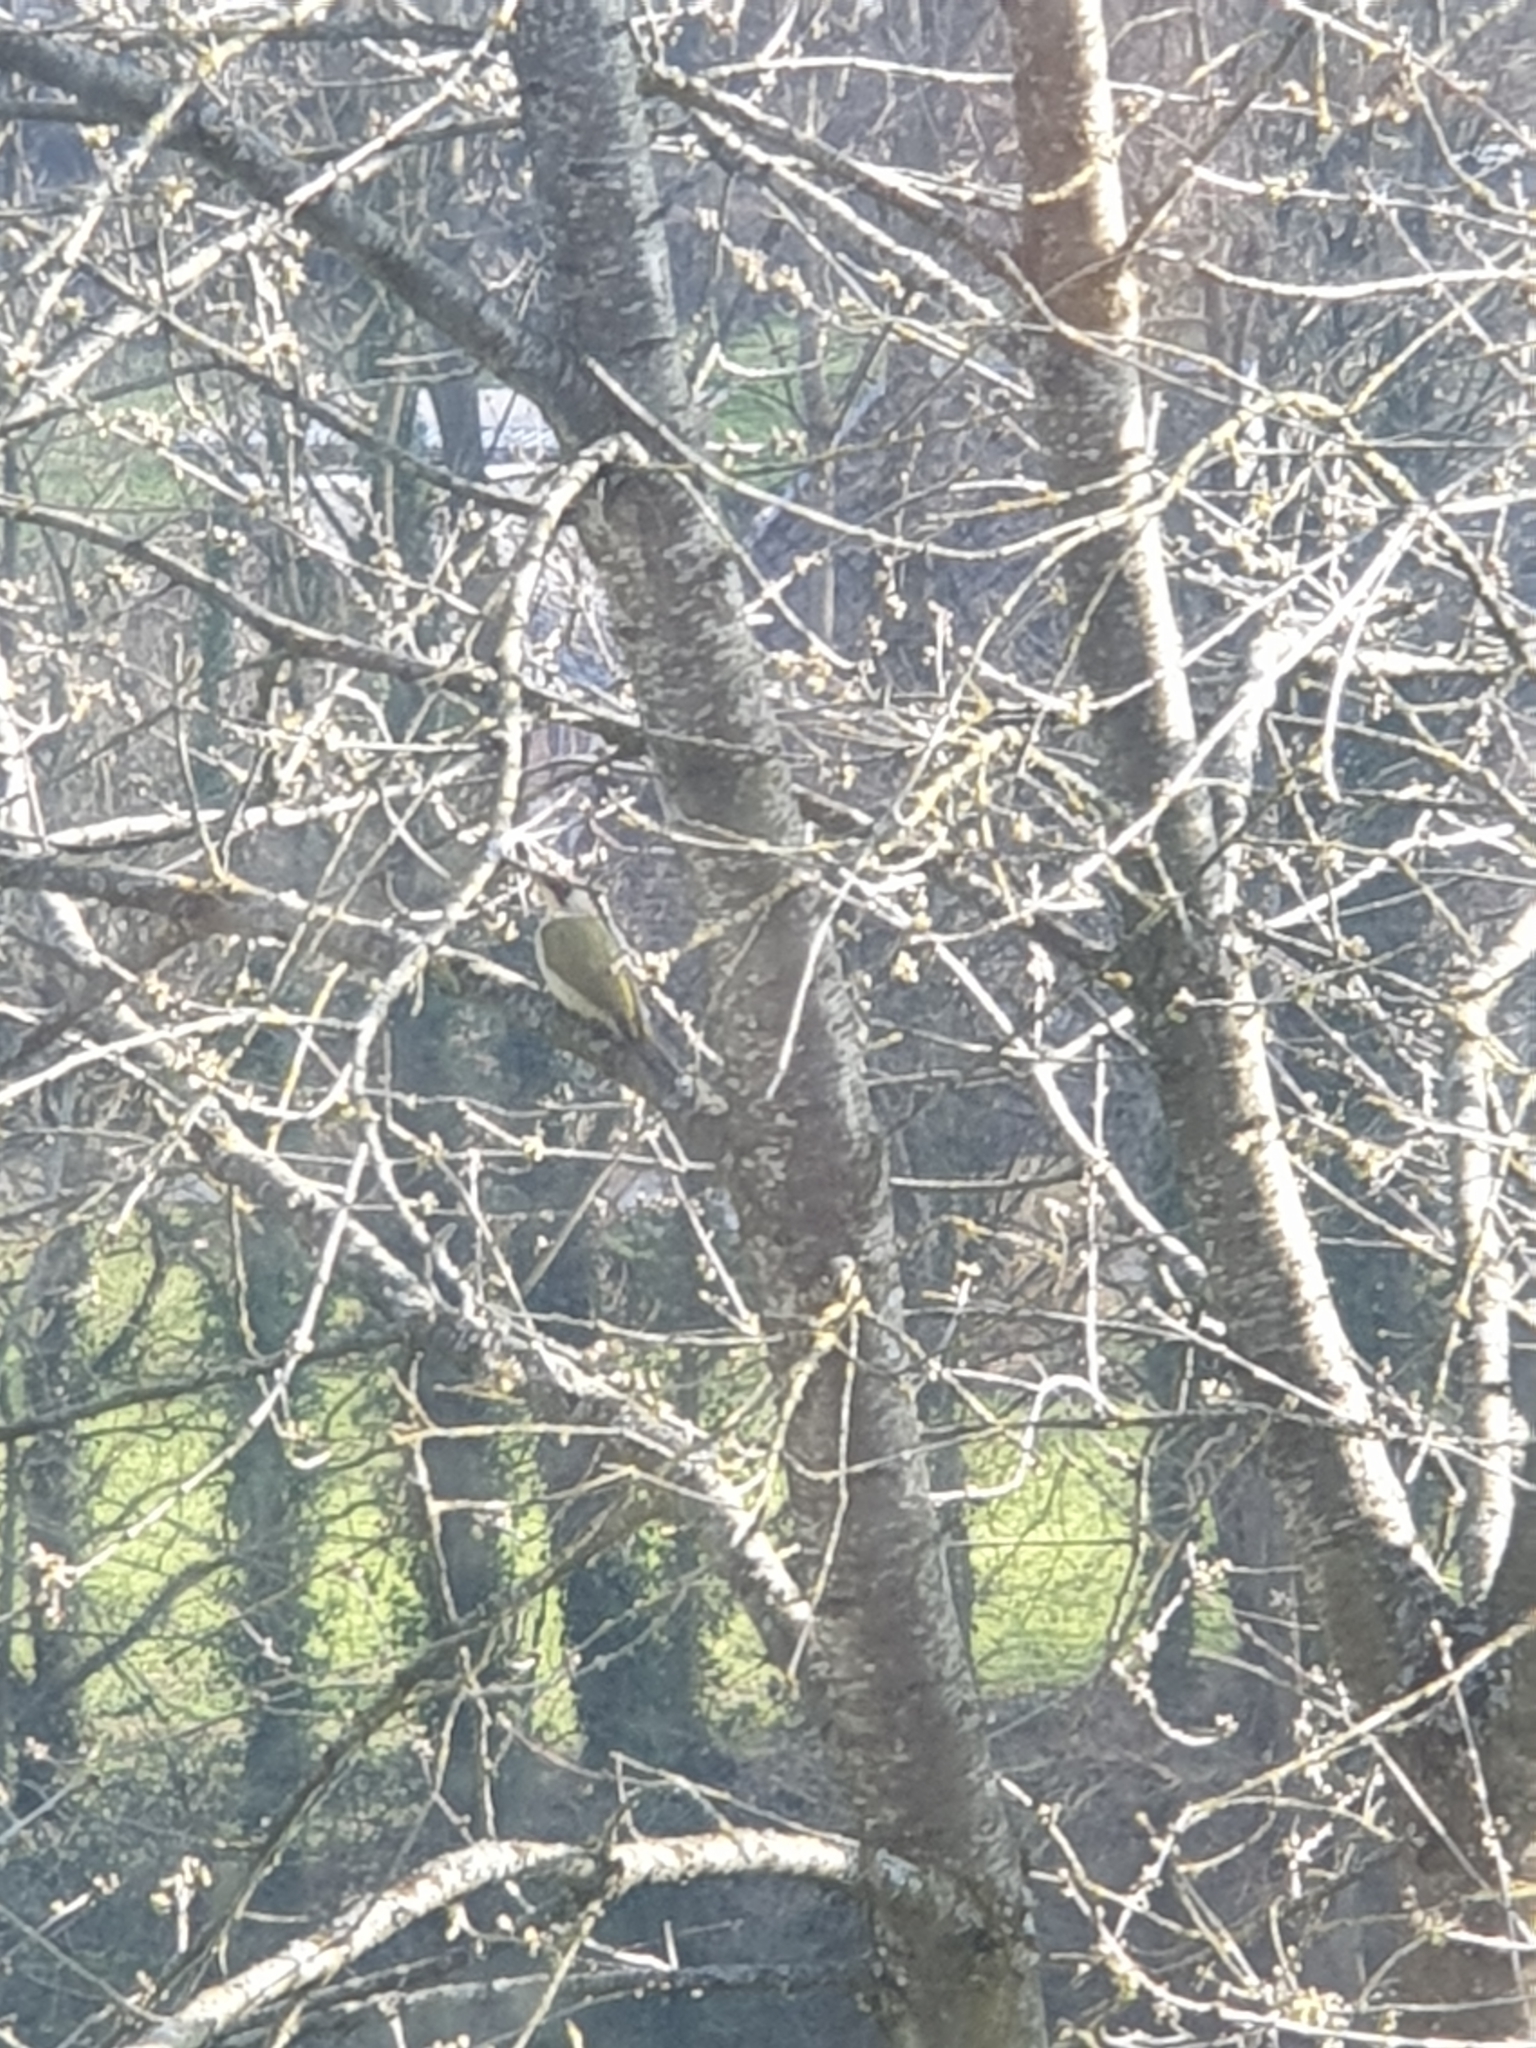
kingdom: Animalia
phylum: Chordata
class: Aves
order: Piciformes
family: Picidae
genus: Picus
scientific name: Picus viridis
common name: European green woodpecker
